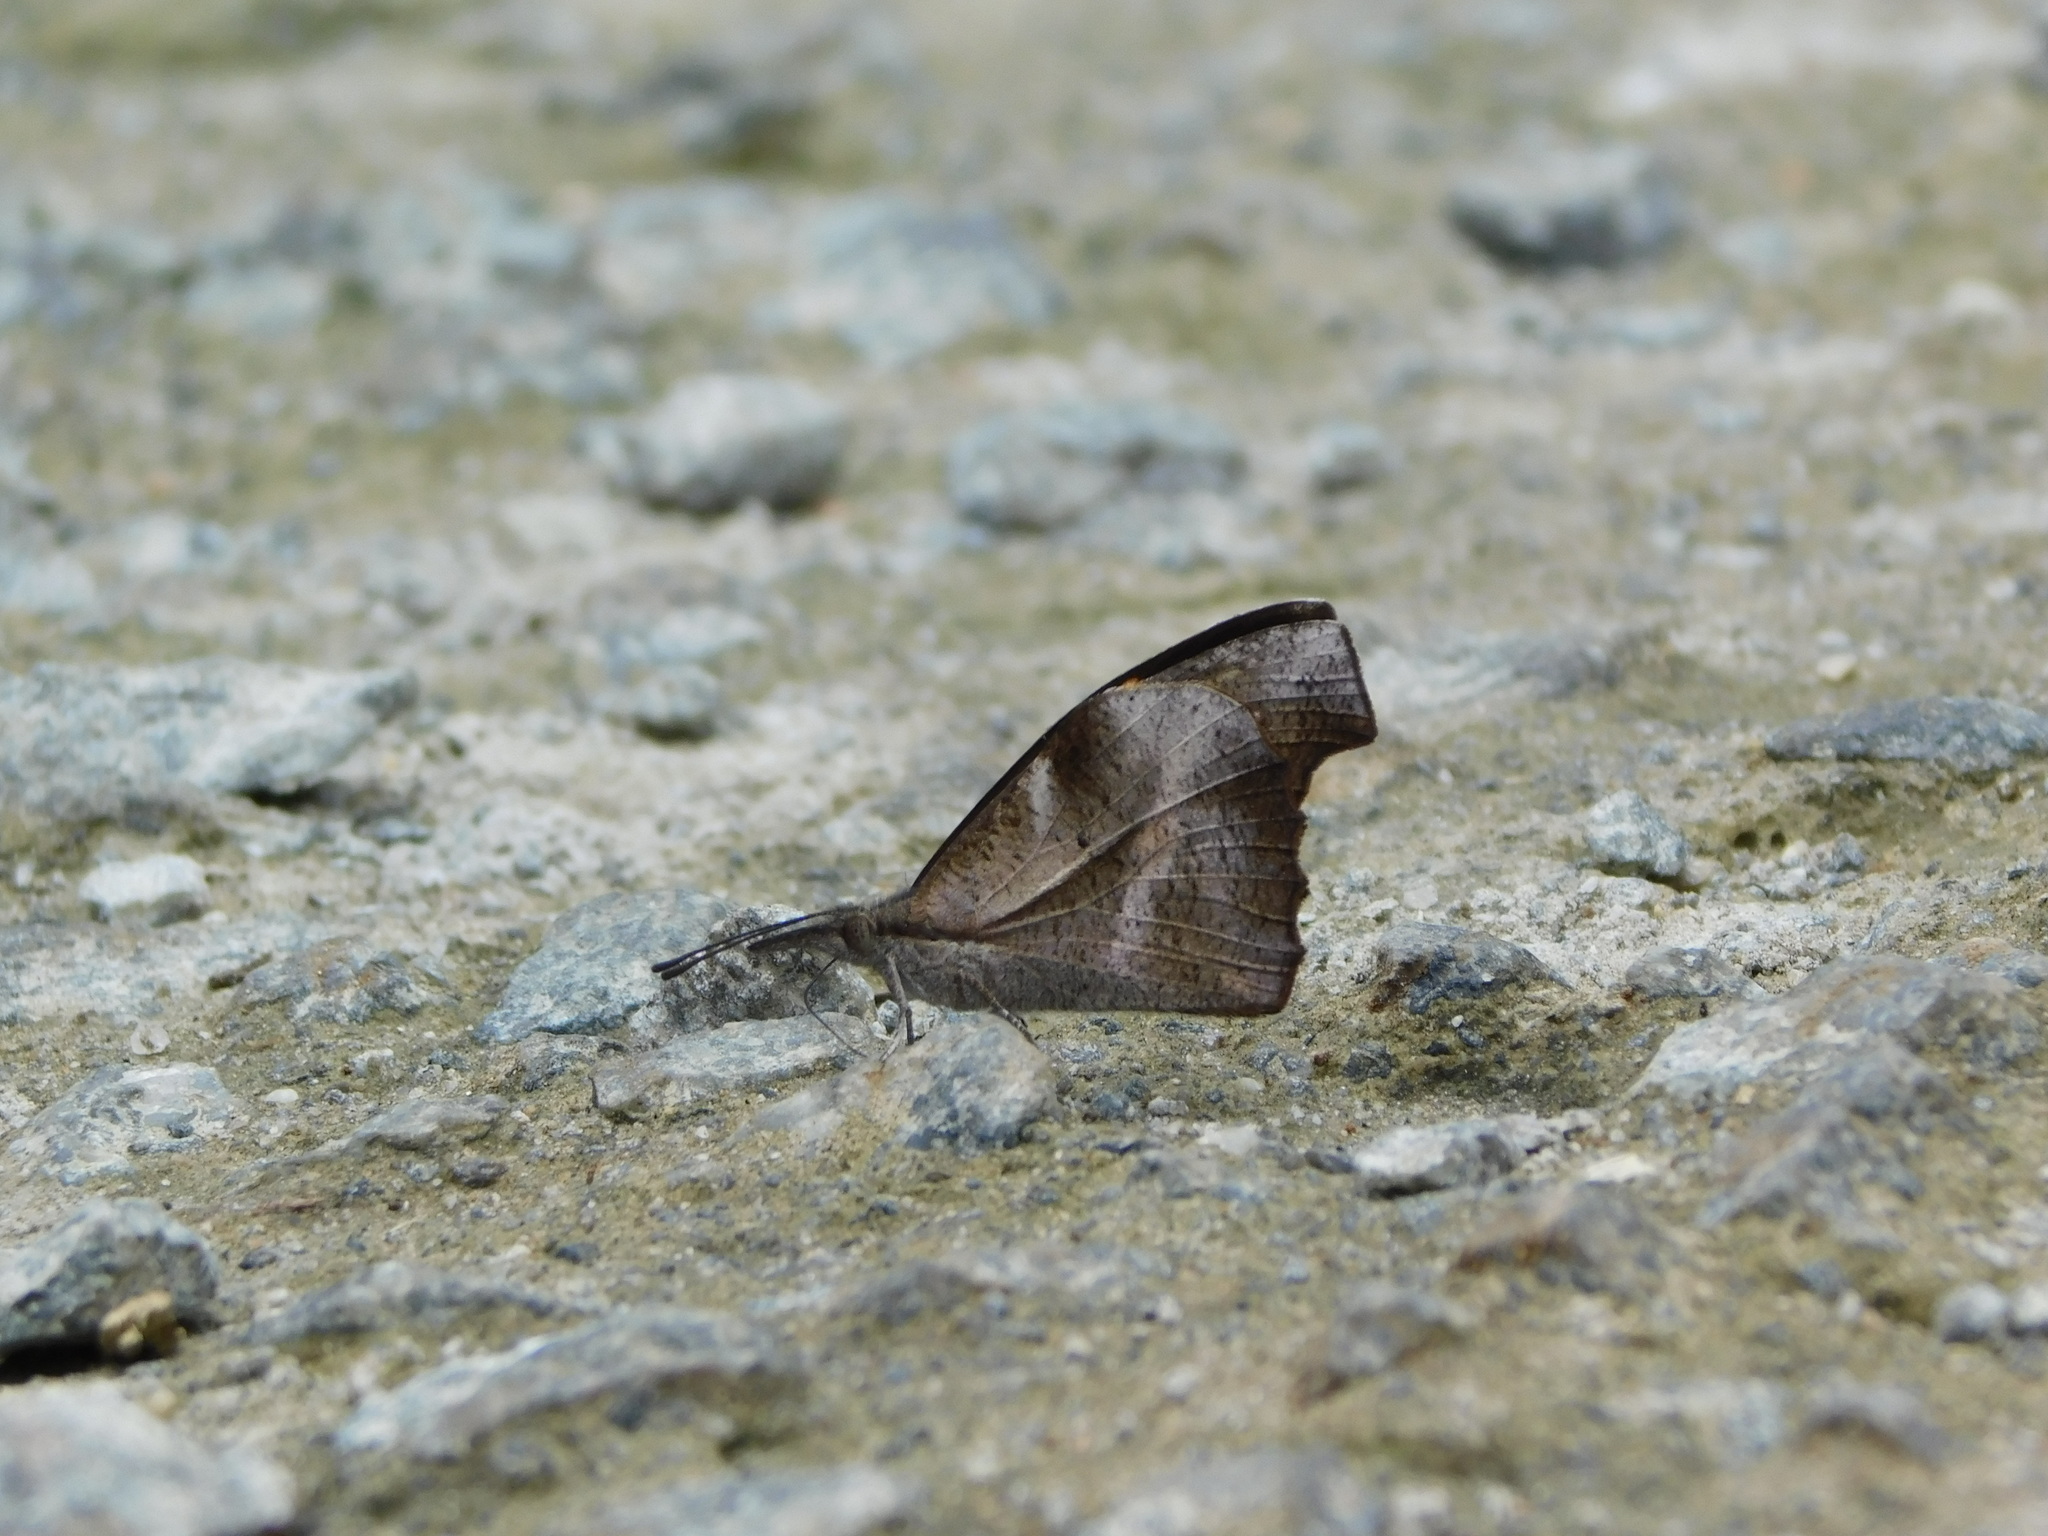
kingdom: Animalia
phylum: Arthropoda
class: Insecta
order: Lepidoptera
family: Nymphalidae
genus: Libythea
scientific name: Libythea myrrha
